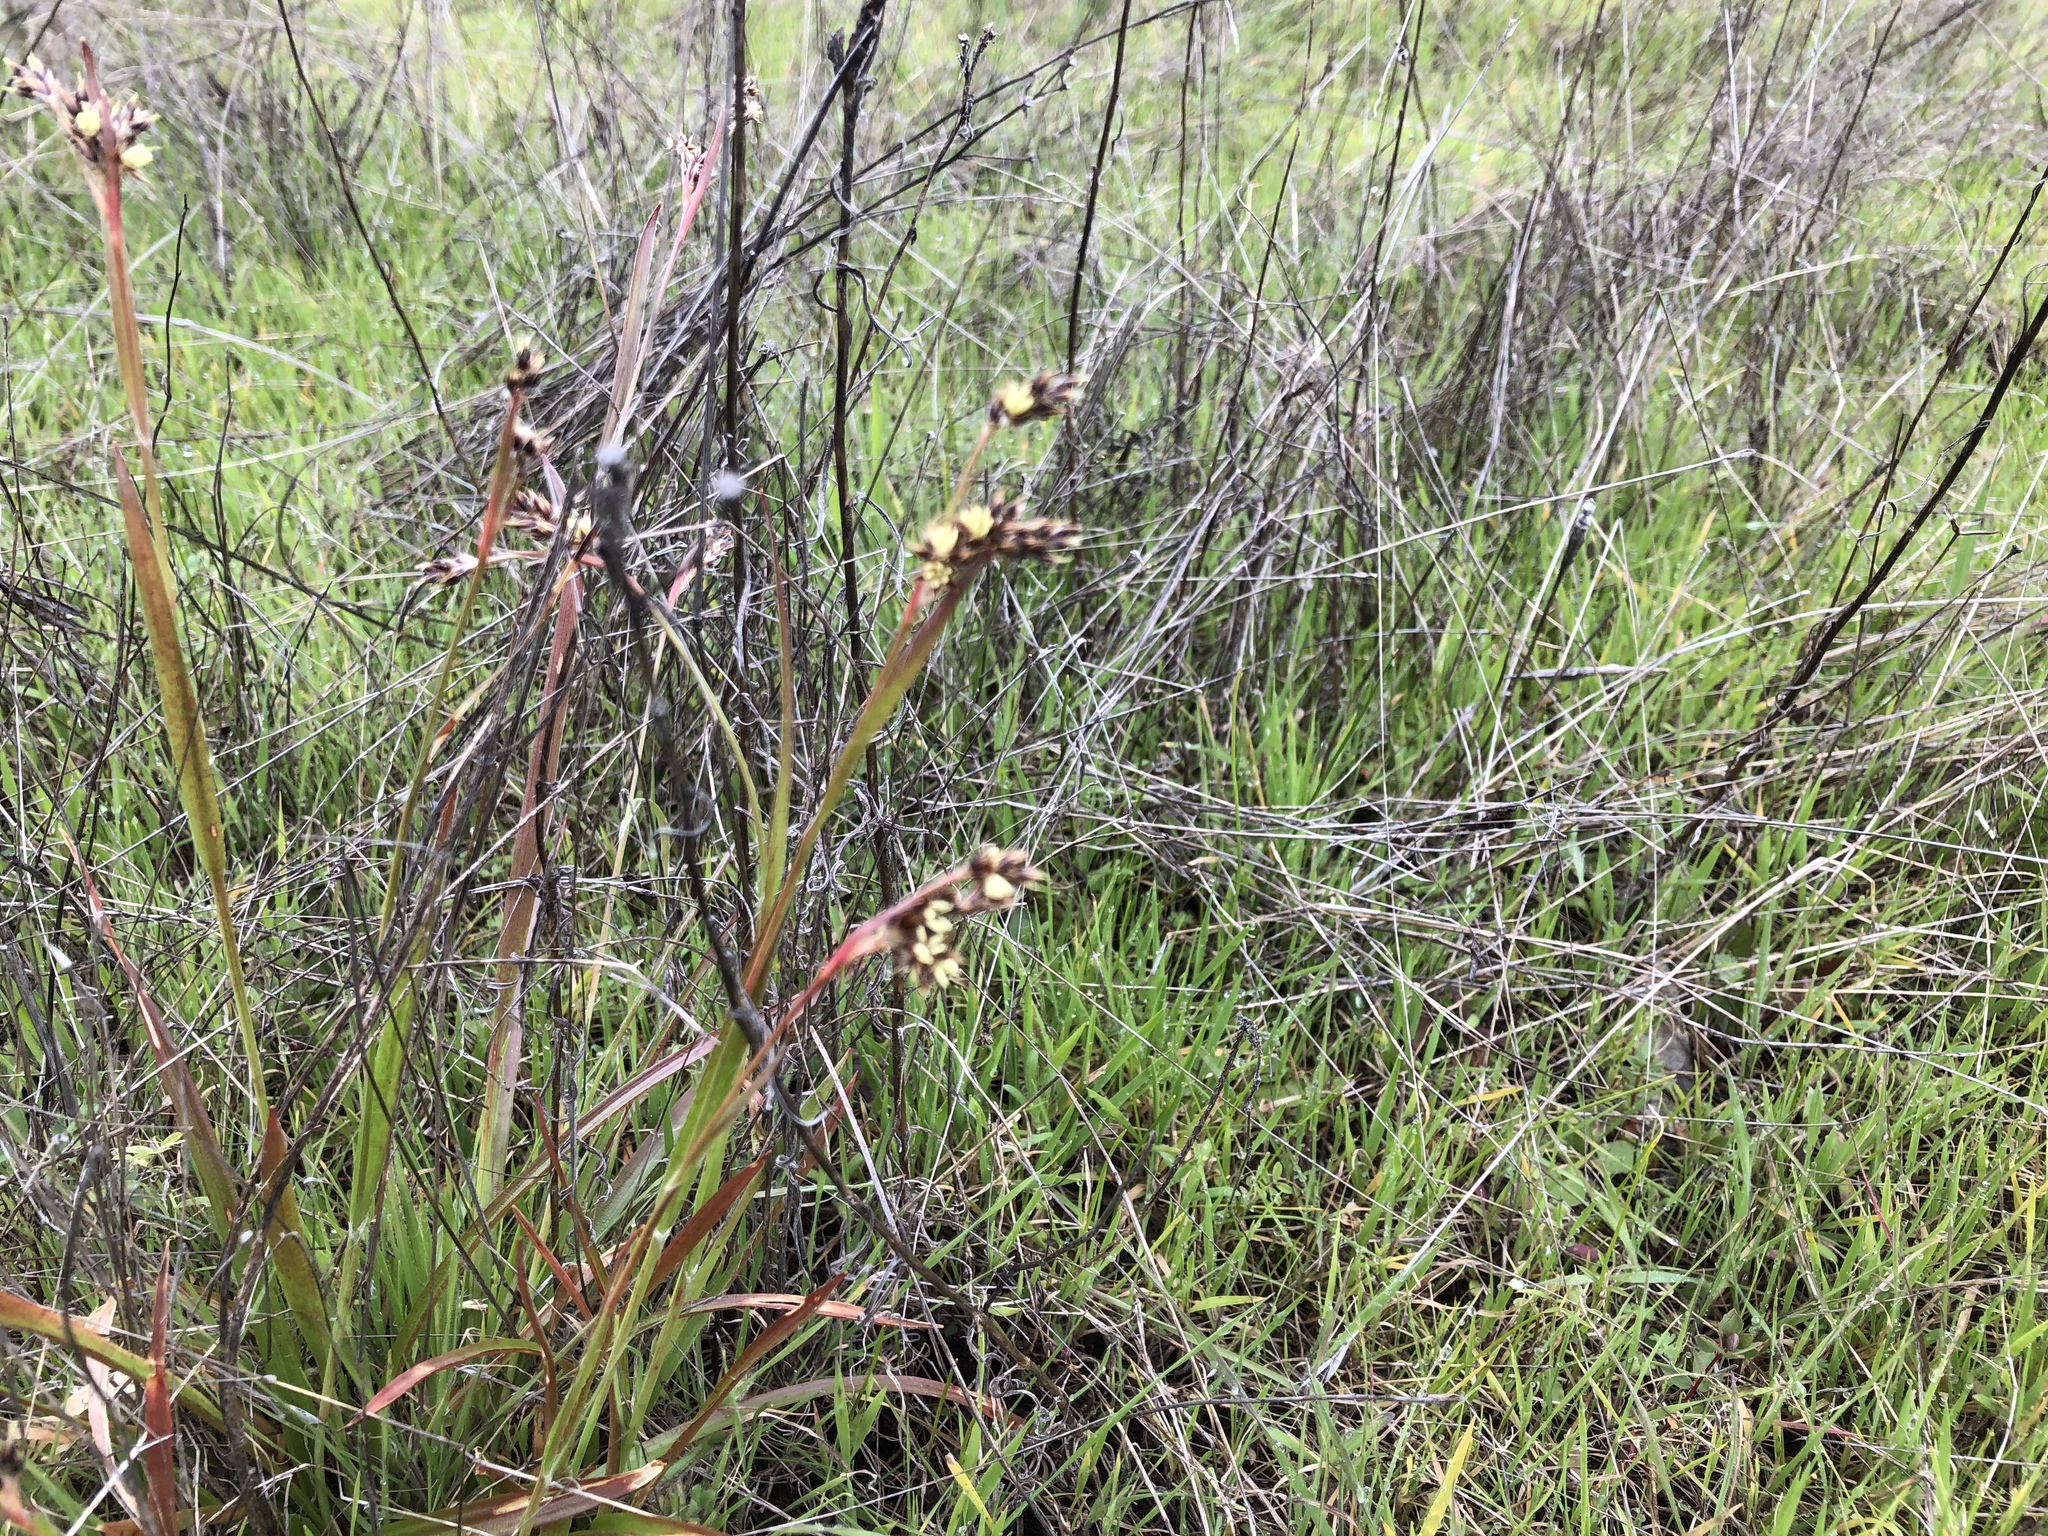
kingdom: Plantae
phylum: Tracheophyta
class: Liliopsida
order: Poales
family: Juncaceae
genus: Luzula
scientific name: Luzula comosa
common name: Pacific woodrush
